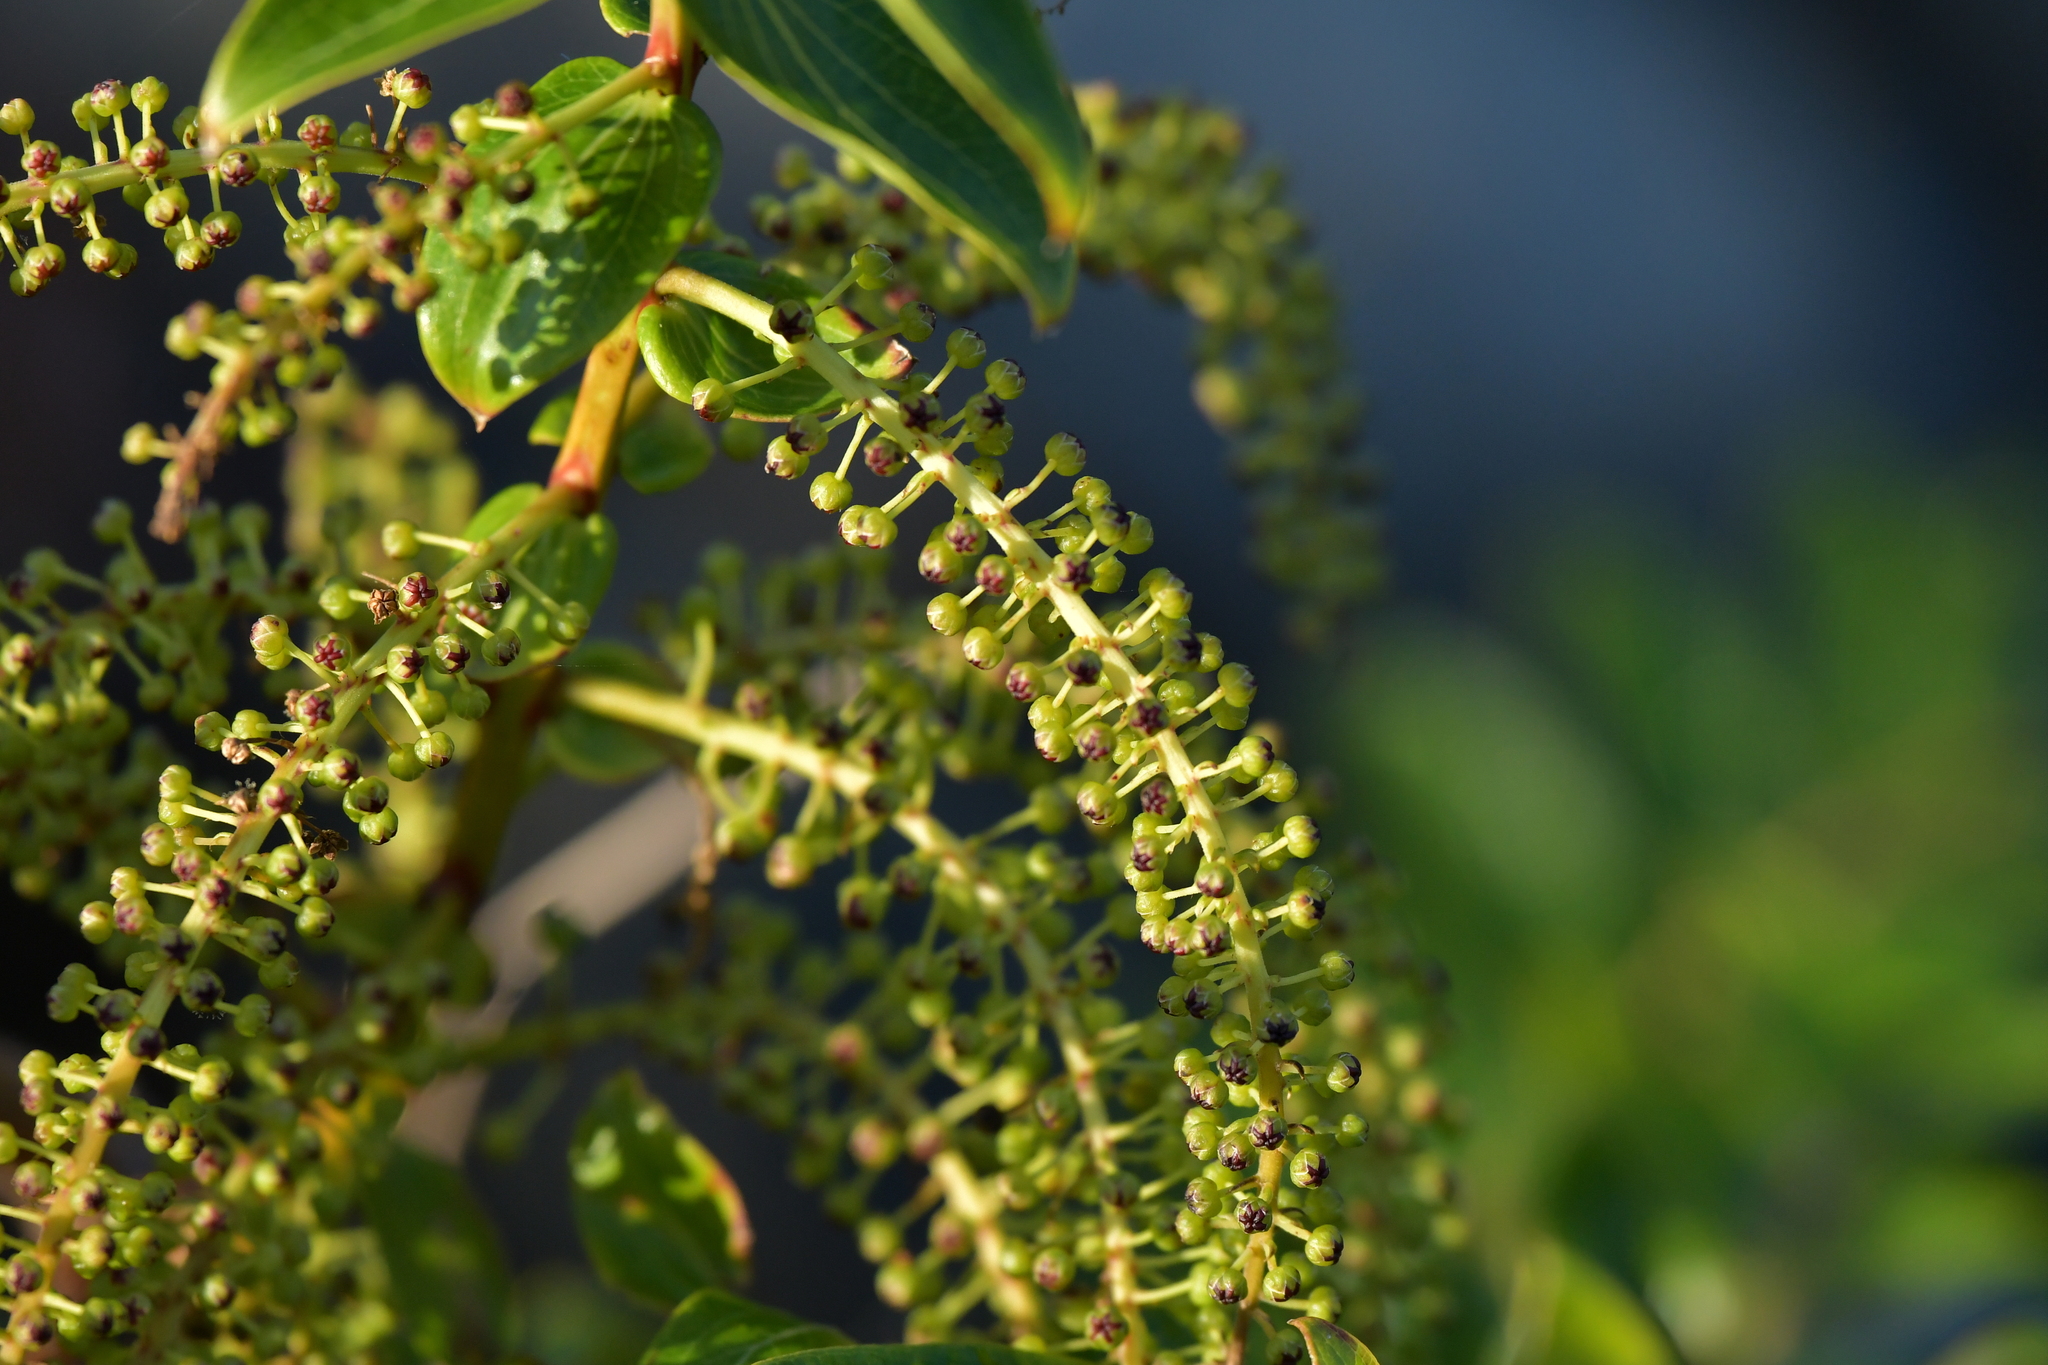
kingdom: Plantae
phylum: Tracheophyta
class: Magnoliopsida
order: Cucurbitales
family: Coriariaceae
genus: Coriaria
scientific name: Coriaria arborea
